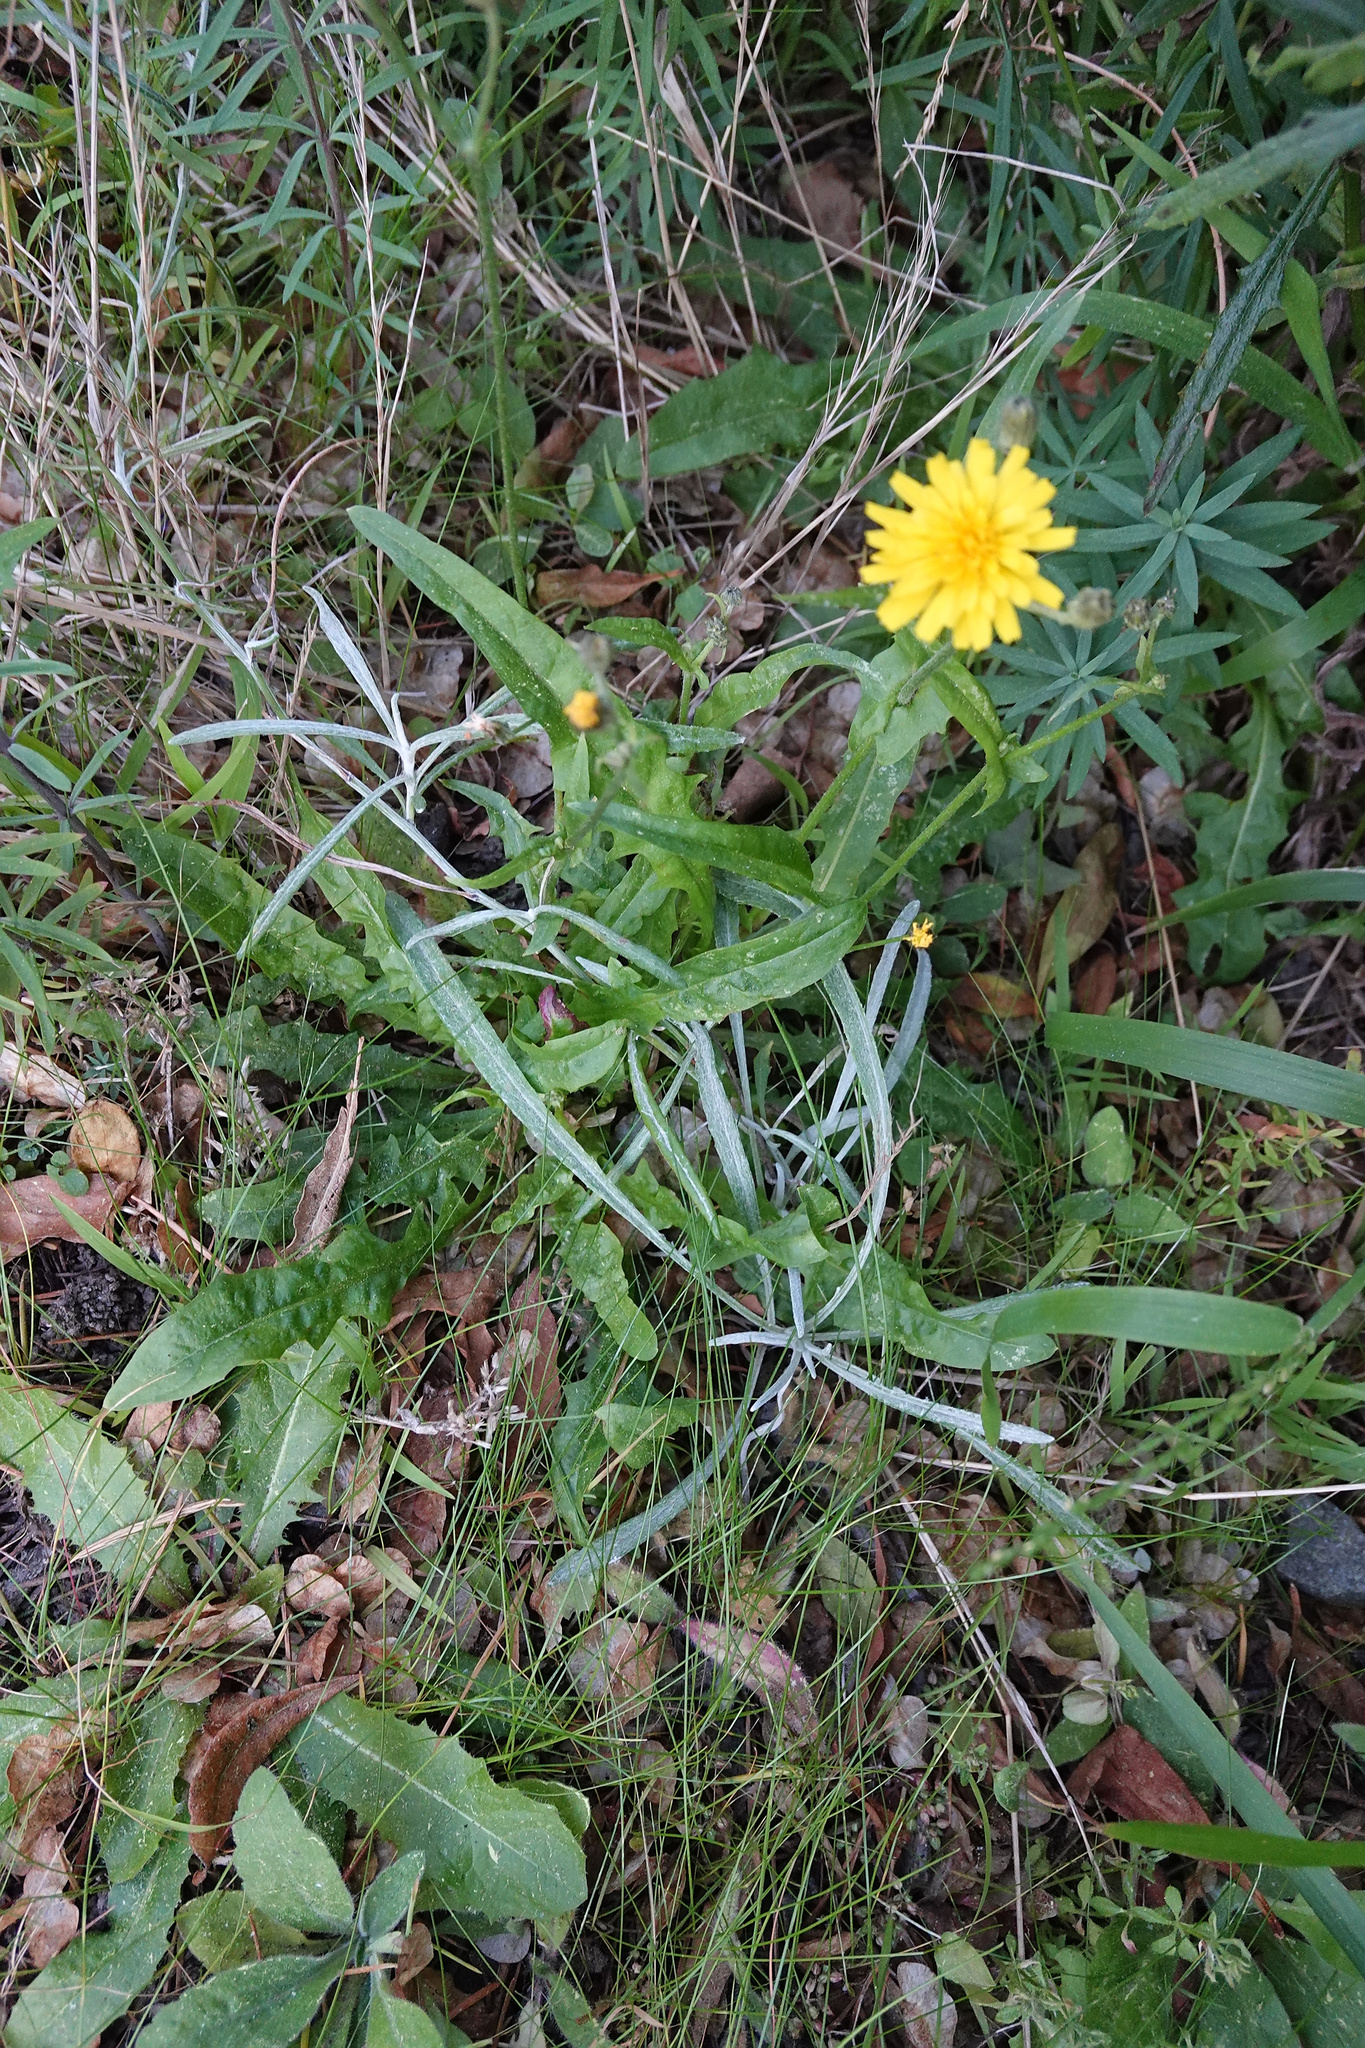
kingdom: Plantae
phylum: Tracheophyta
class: Magnoliopsida
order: Asterales
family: Asteraceae
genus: Senecio
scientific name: Senecio quadridentatus
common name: Cotton fireweed
